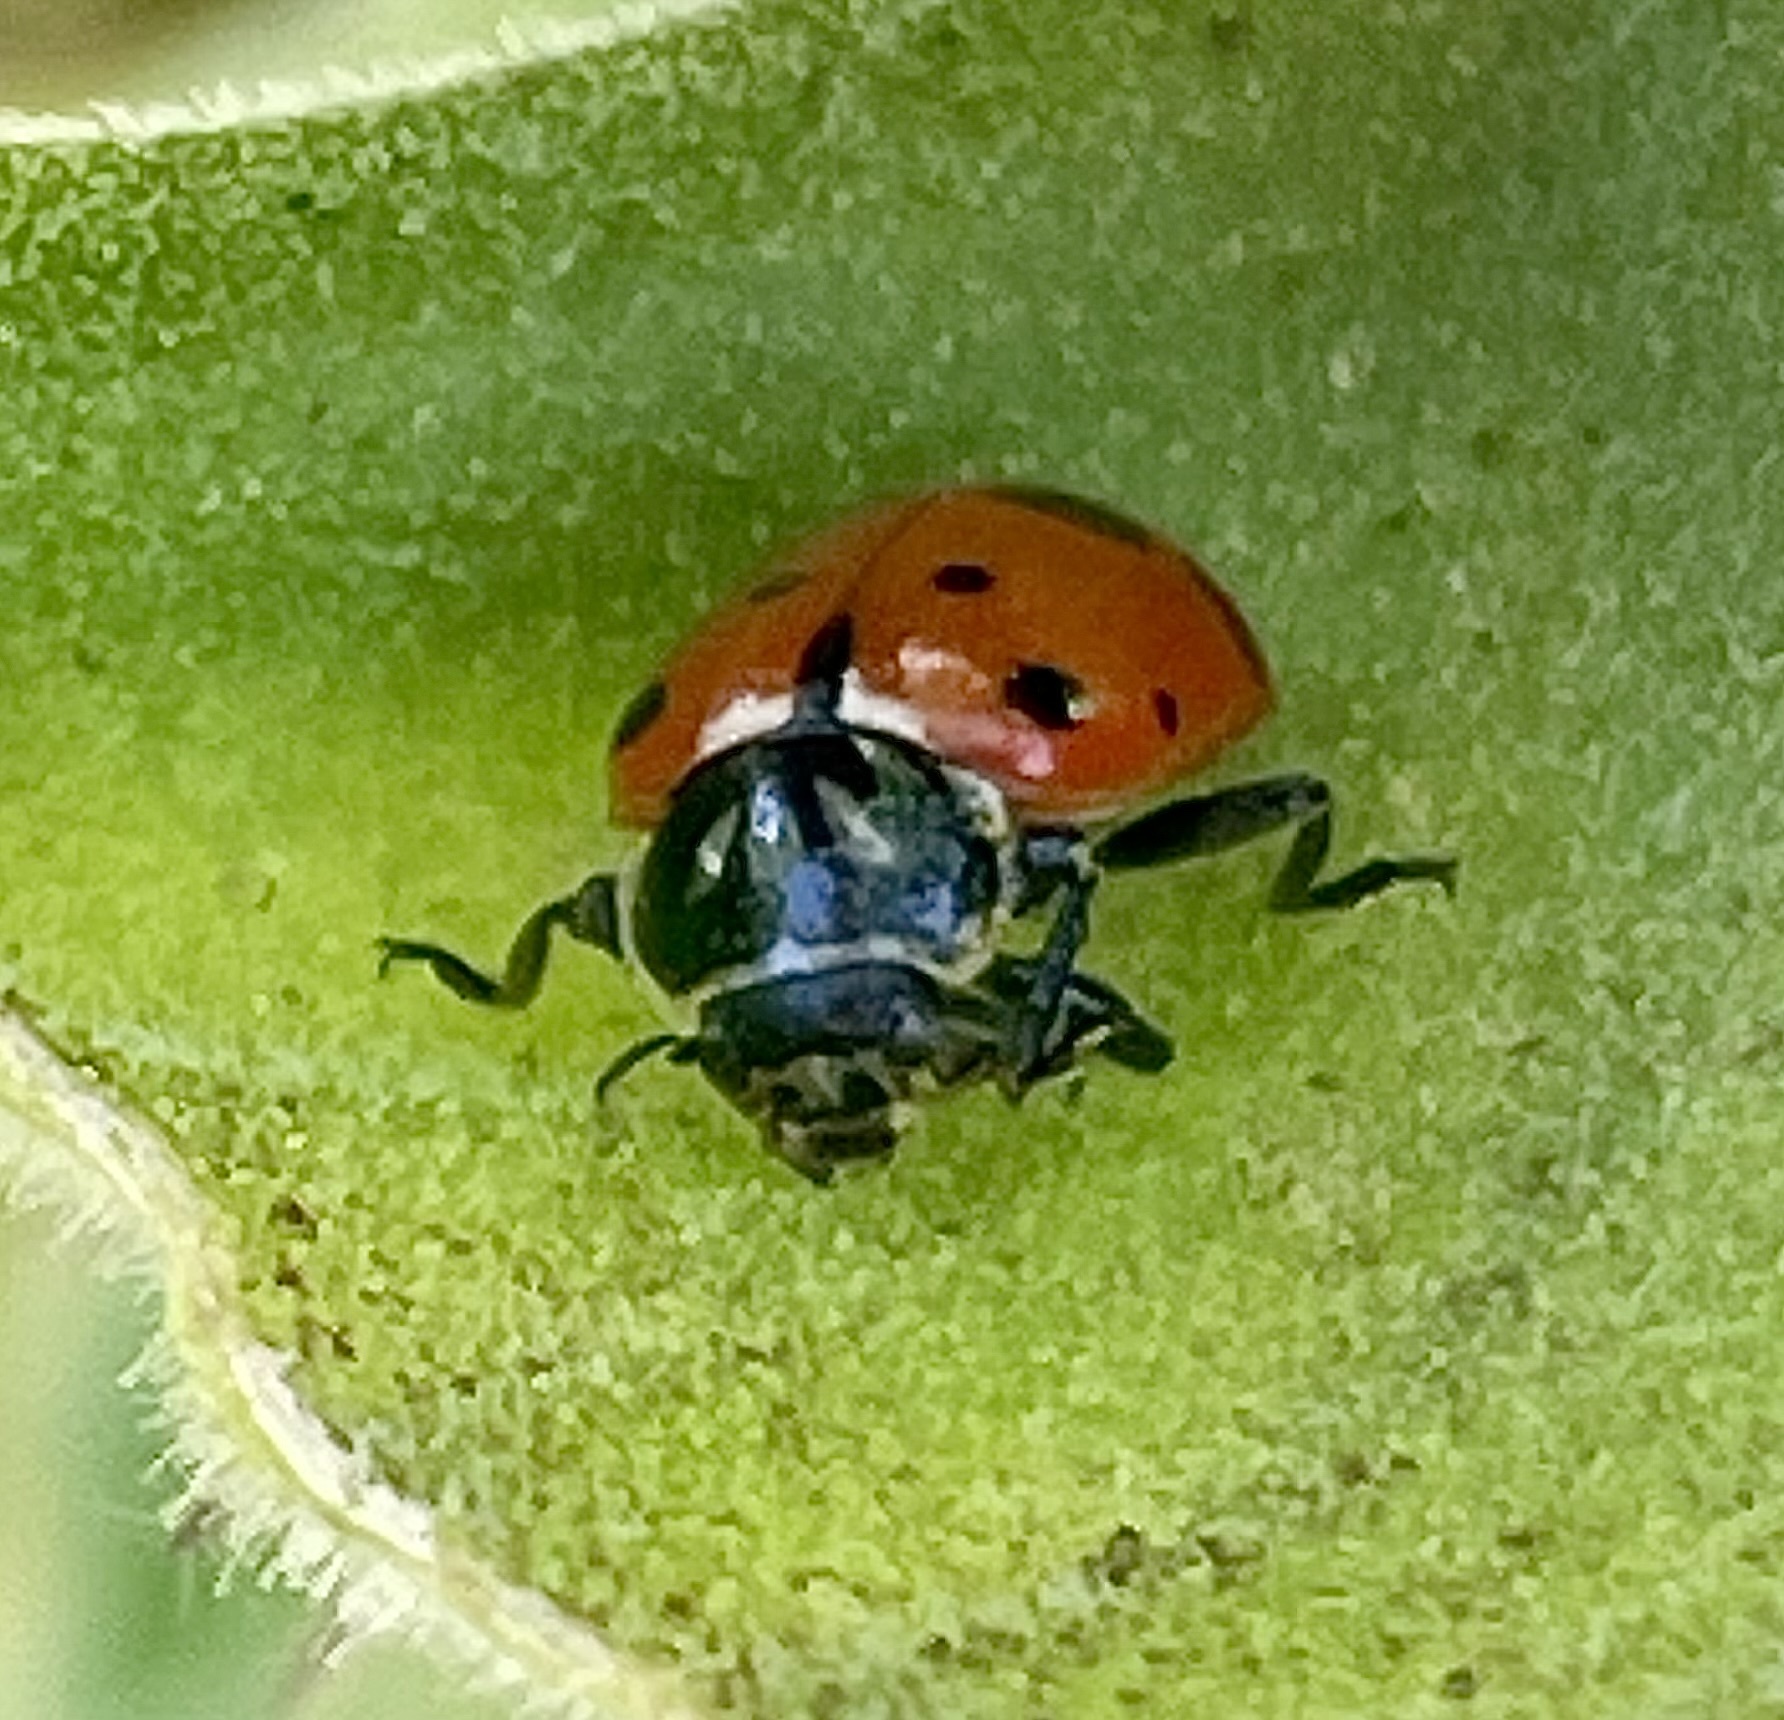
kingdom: Animalia
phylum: Arthropoda
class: Insecta
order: Coleoptera
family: Coccinellidae
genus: Hippodamia
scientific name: Hippodamia convergens
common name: Convergent lady beetle
